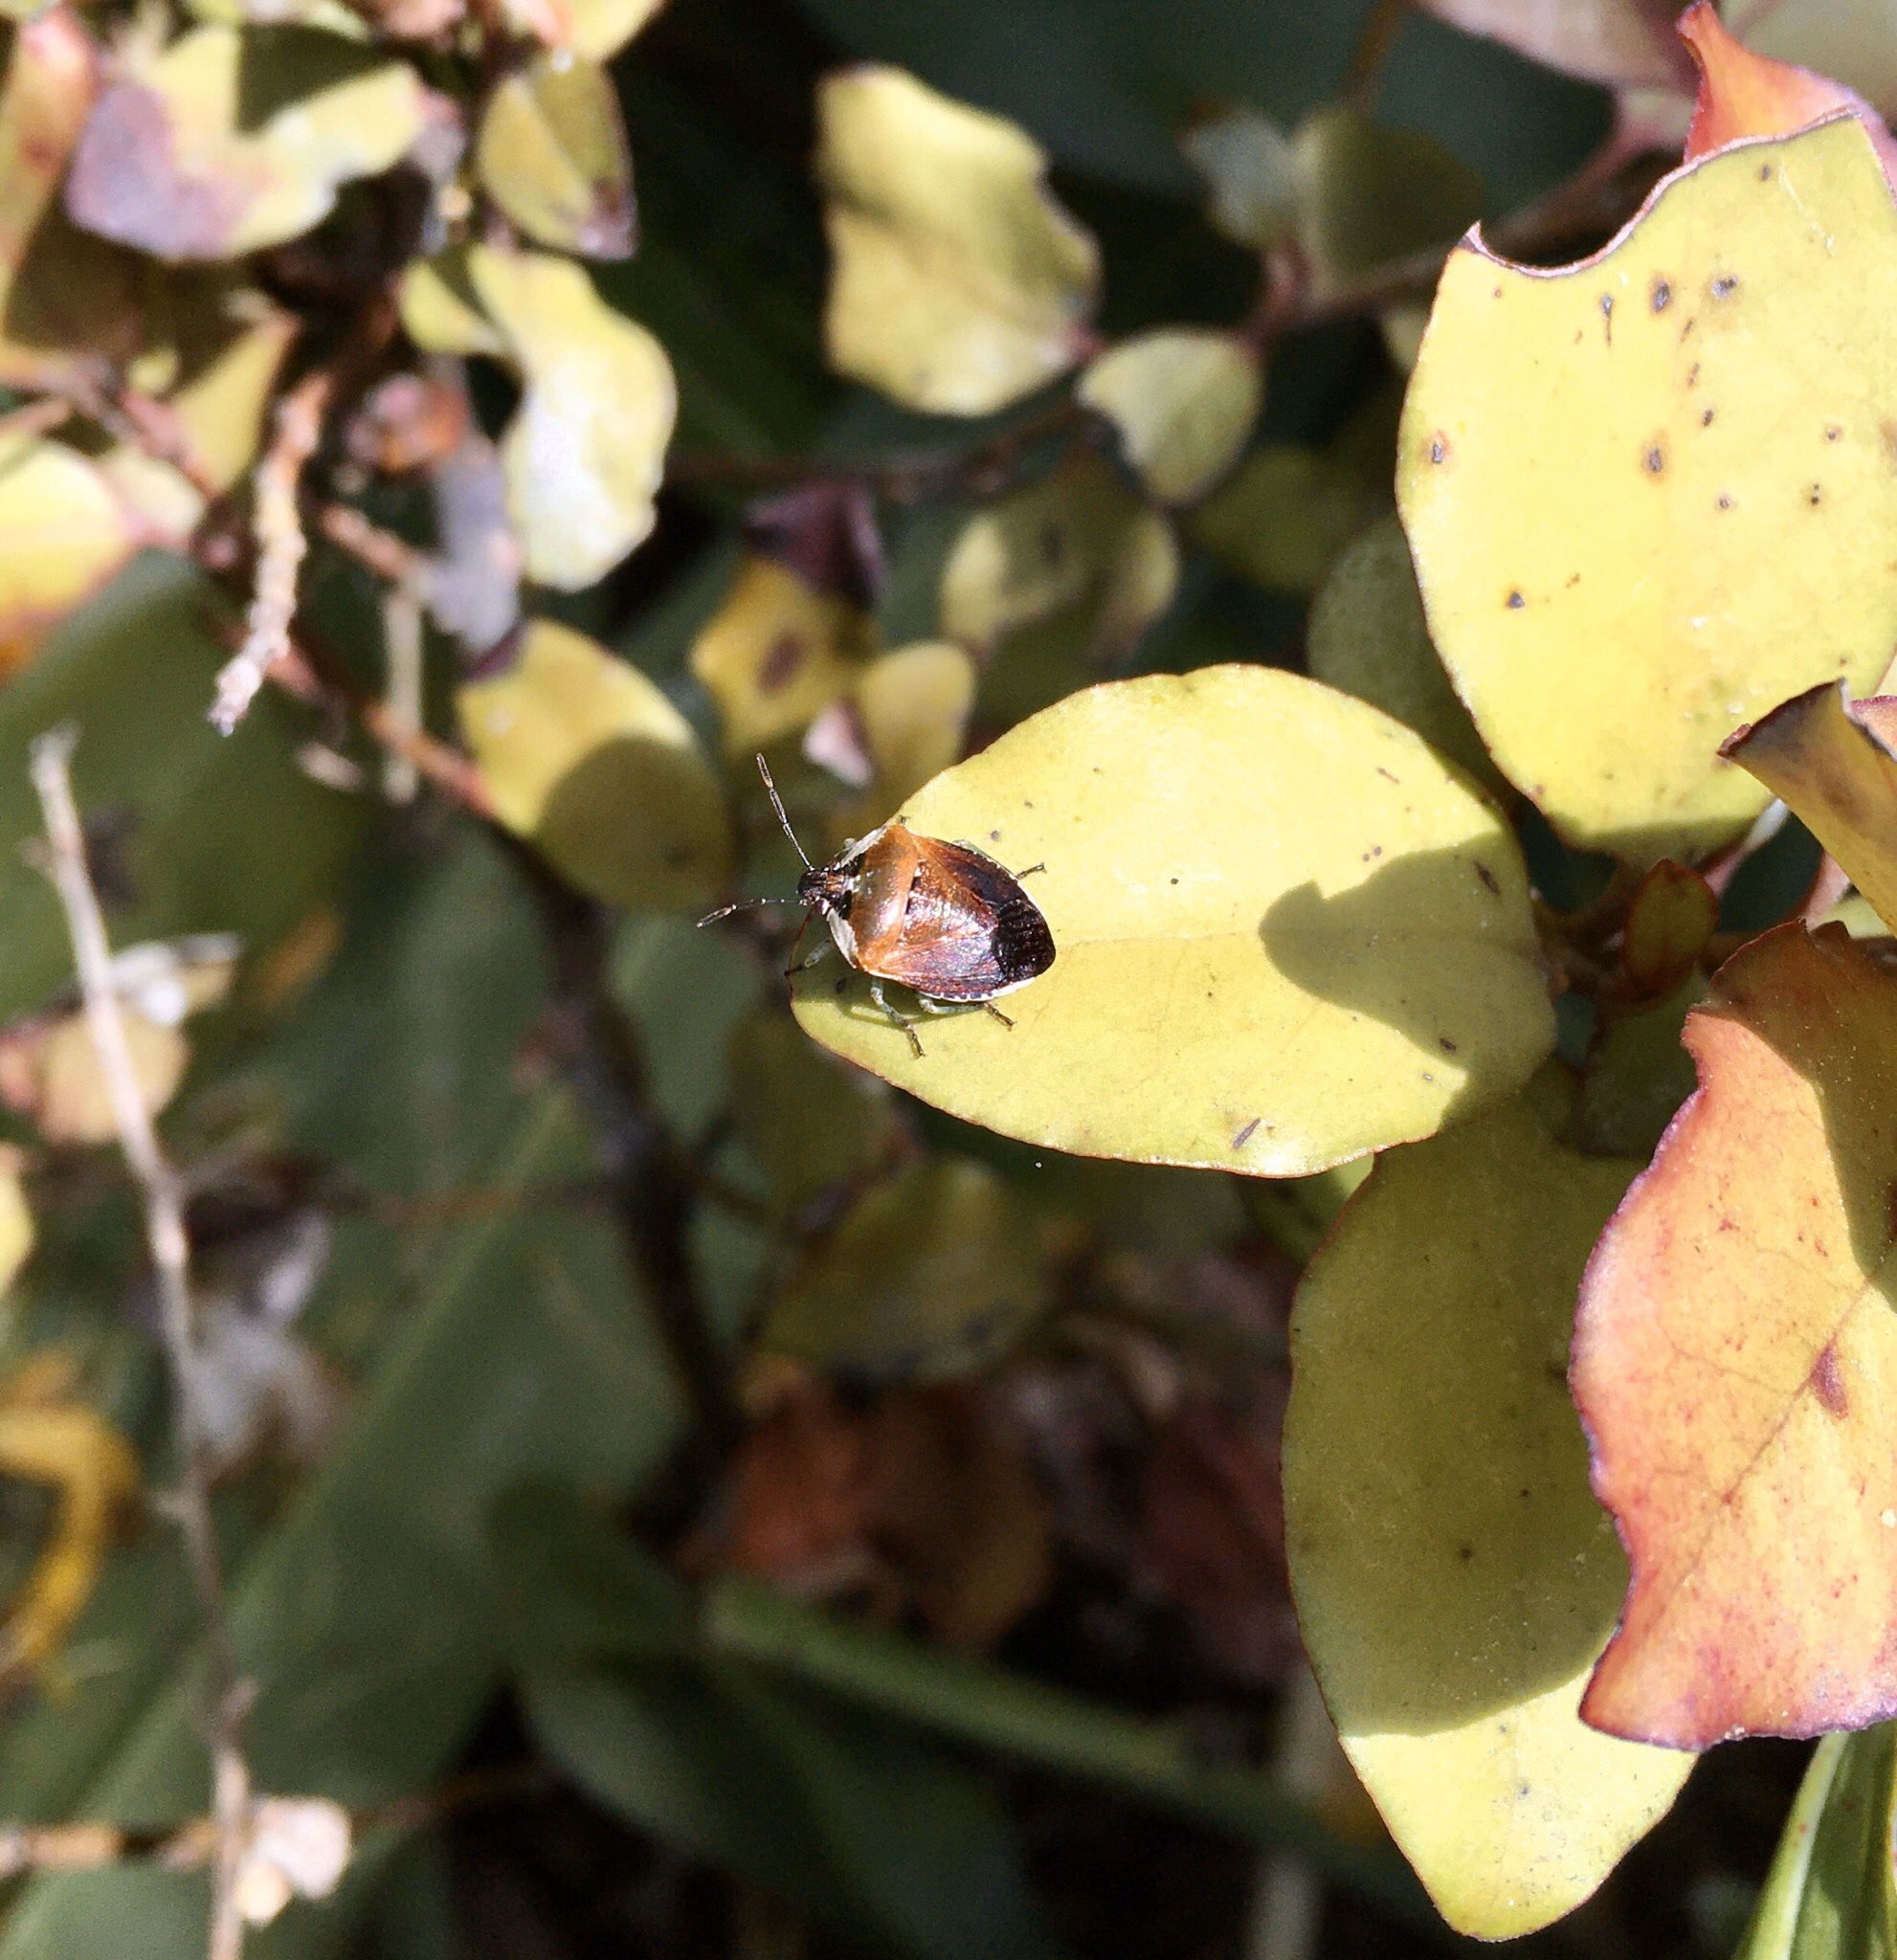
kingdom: Animalia
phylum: Arthropoda
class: Insecta
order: Hemiptera
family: Pentatomidae
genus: Monteithiella
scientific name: Monteithiella
